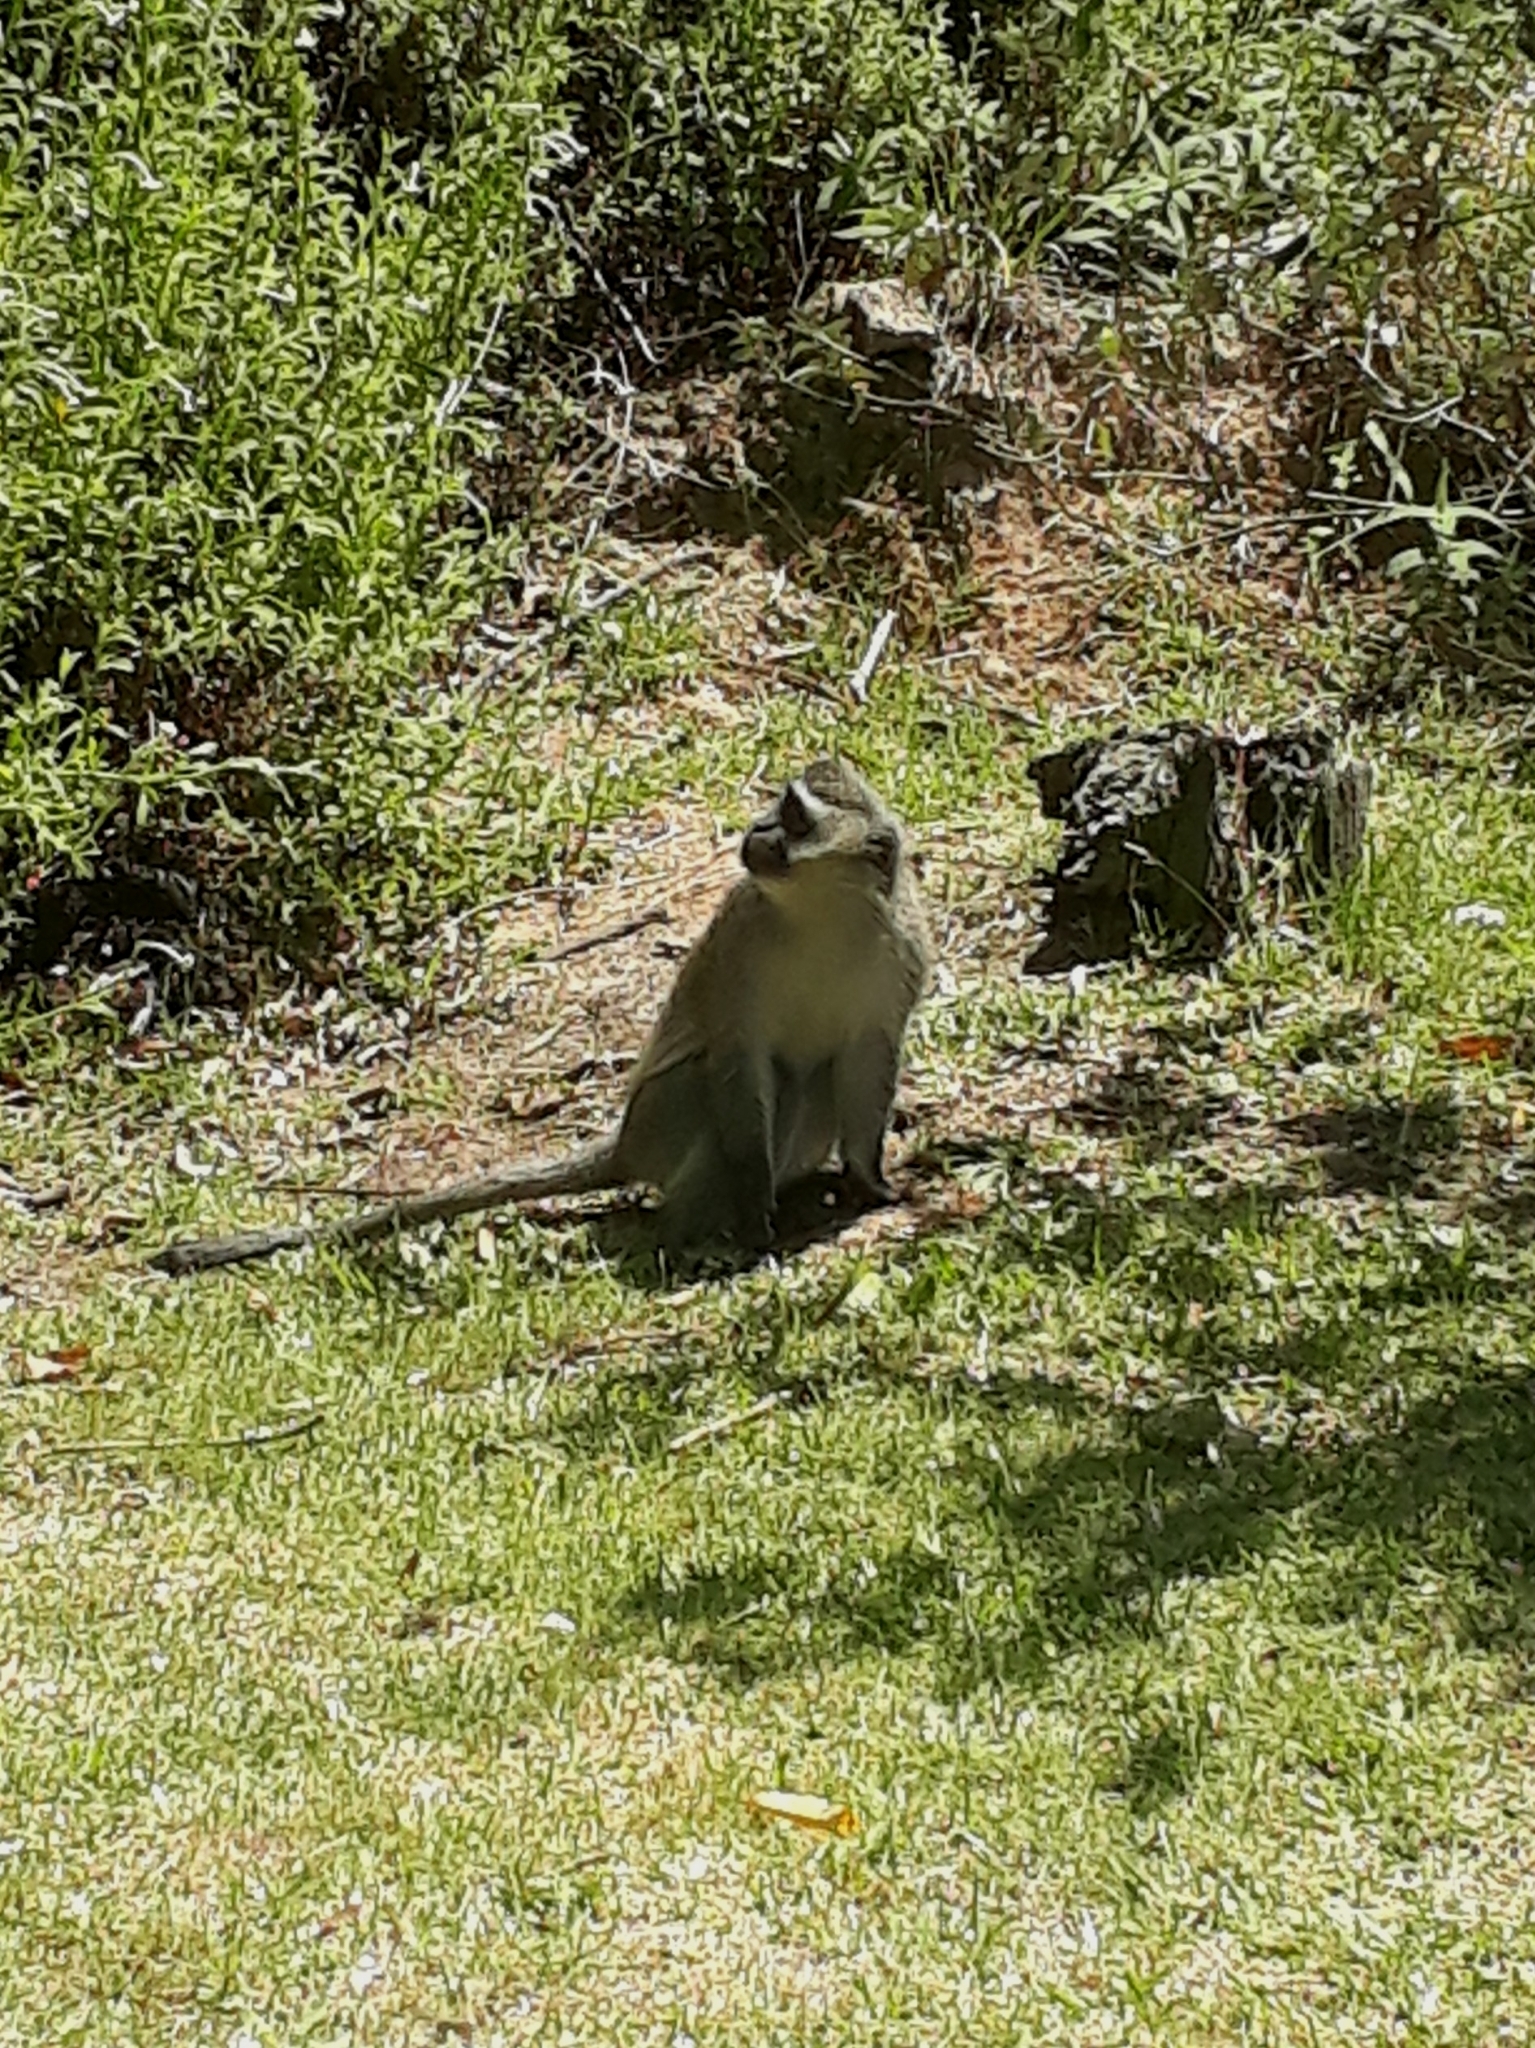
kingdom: Animalia
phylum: Chordata
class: Mammalia
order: Primates
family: Cercopithecidae
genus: Chlorocebus
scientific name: Chlorocebus pygerythrus
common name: Vervet monkey
